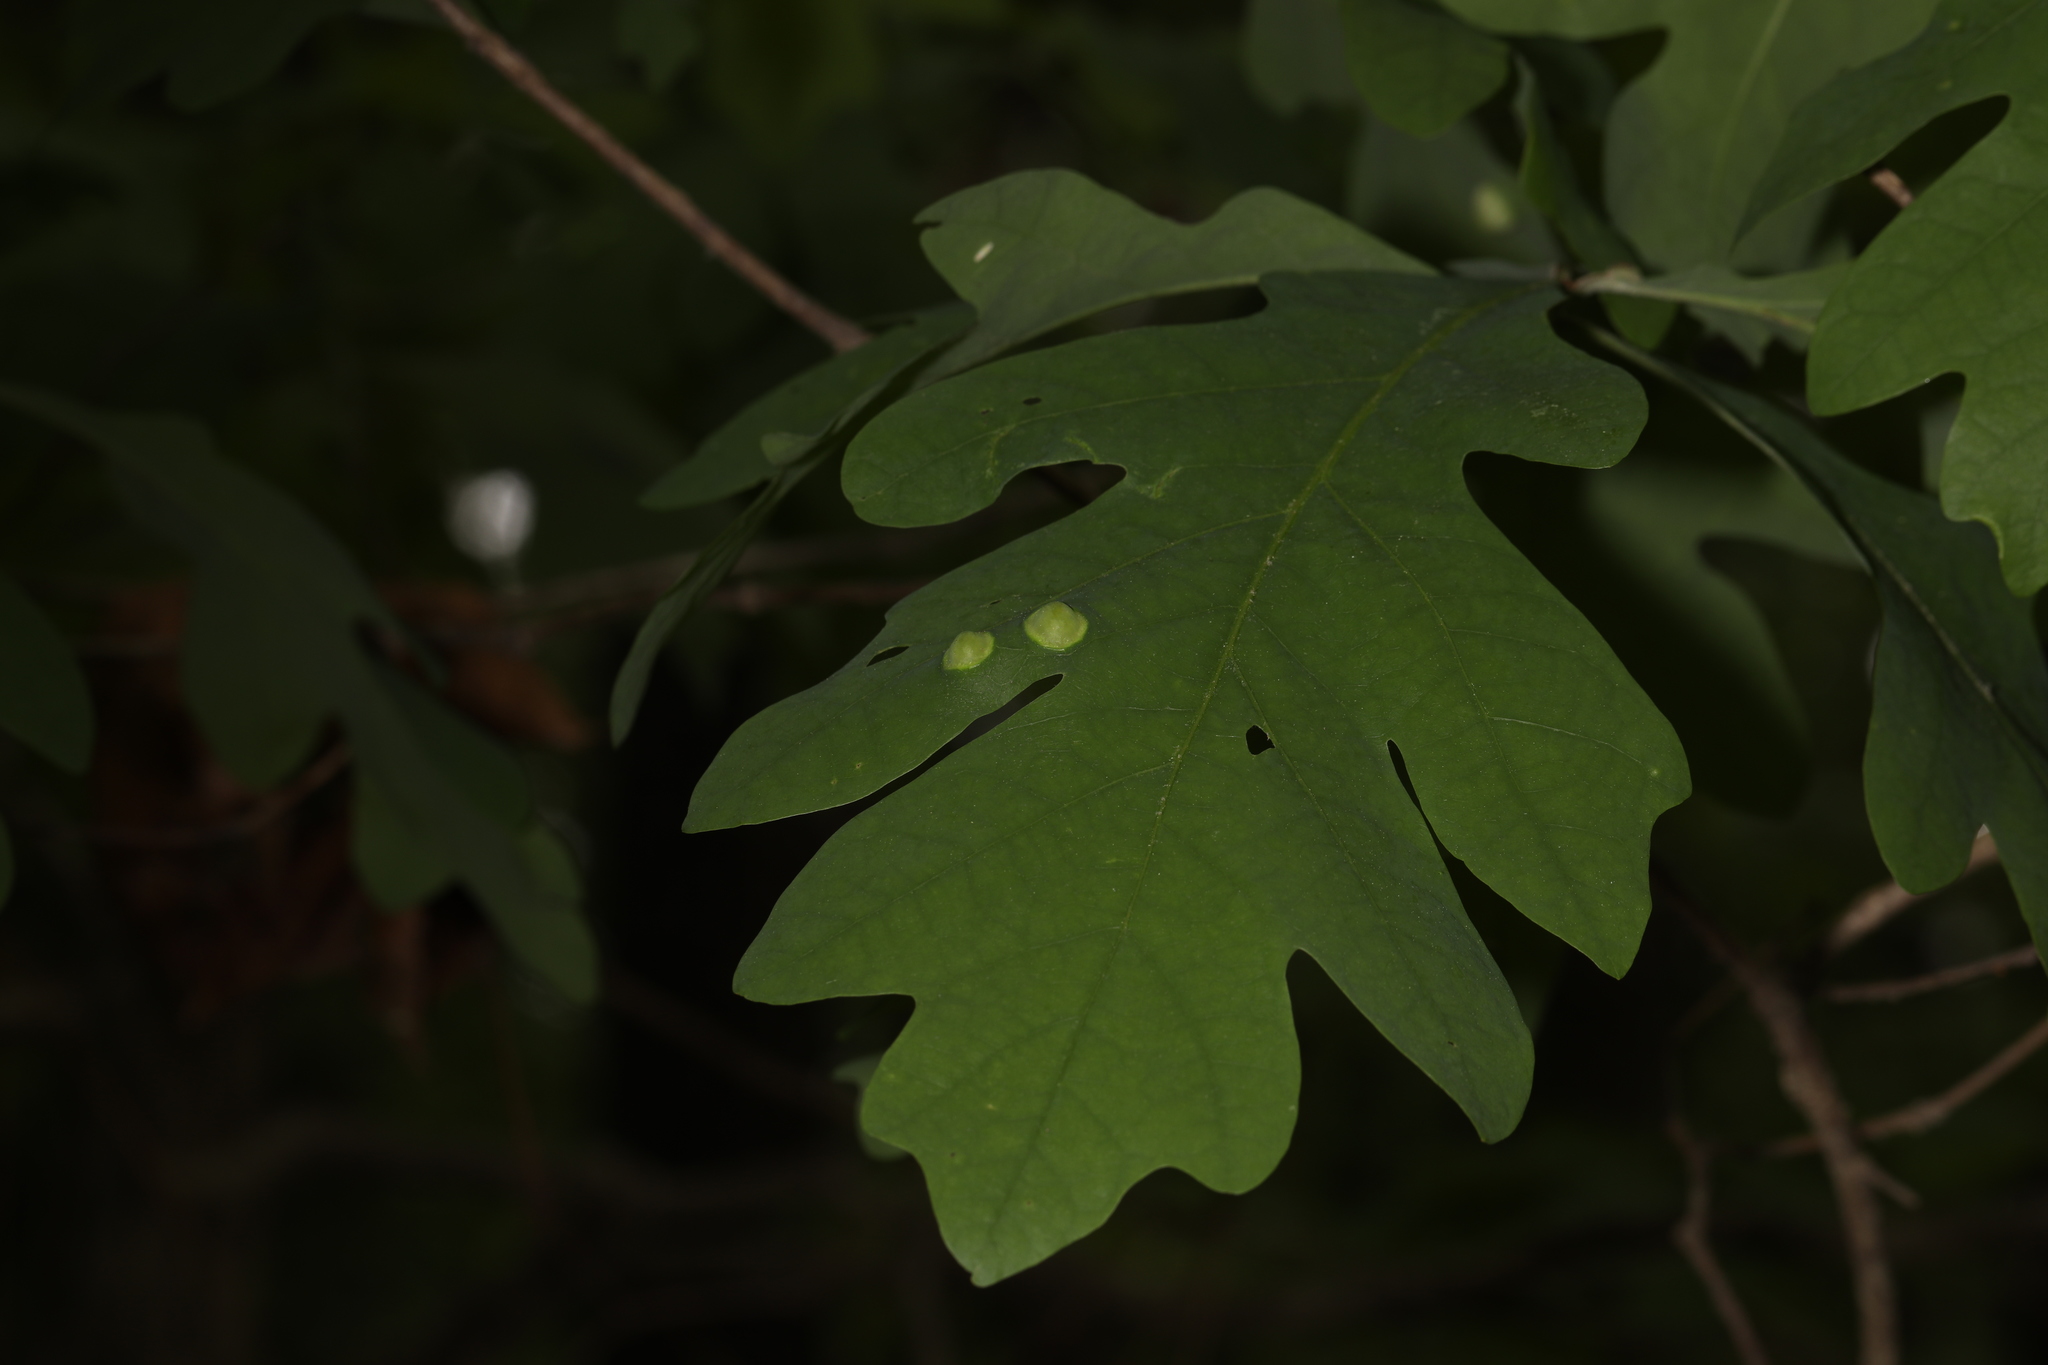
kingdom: Animalia
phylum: Arthropoda
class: Insecta
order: Hymenoptera
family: Cynipidae
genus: Callirhytis
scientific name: Callirhytis
